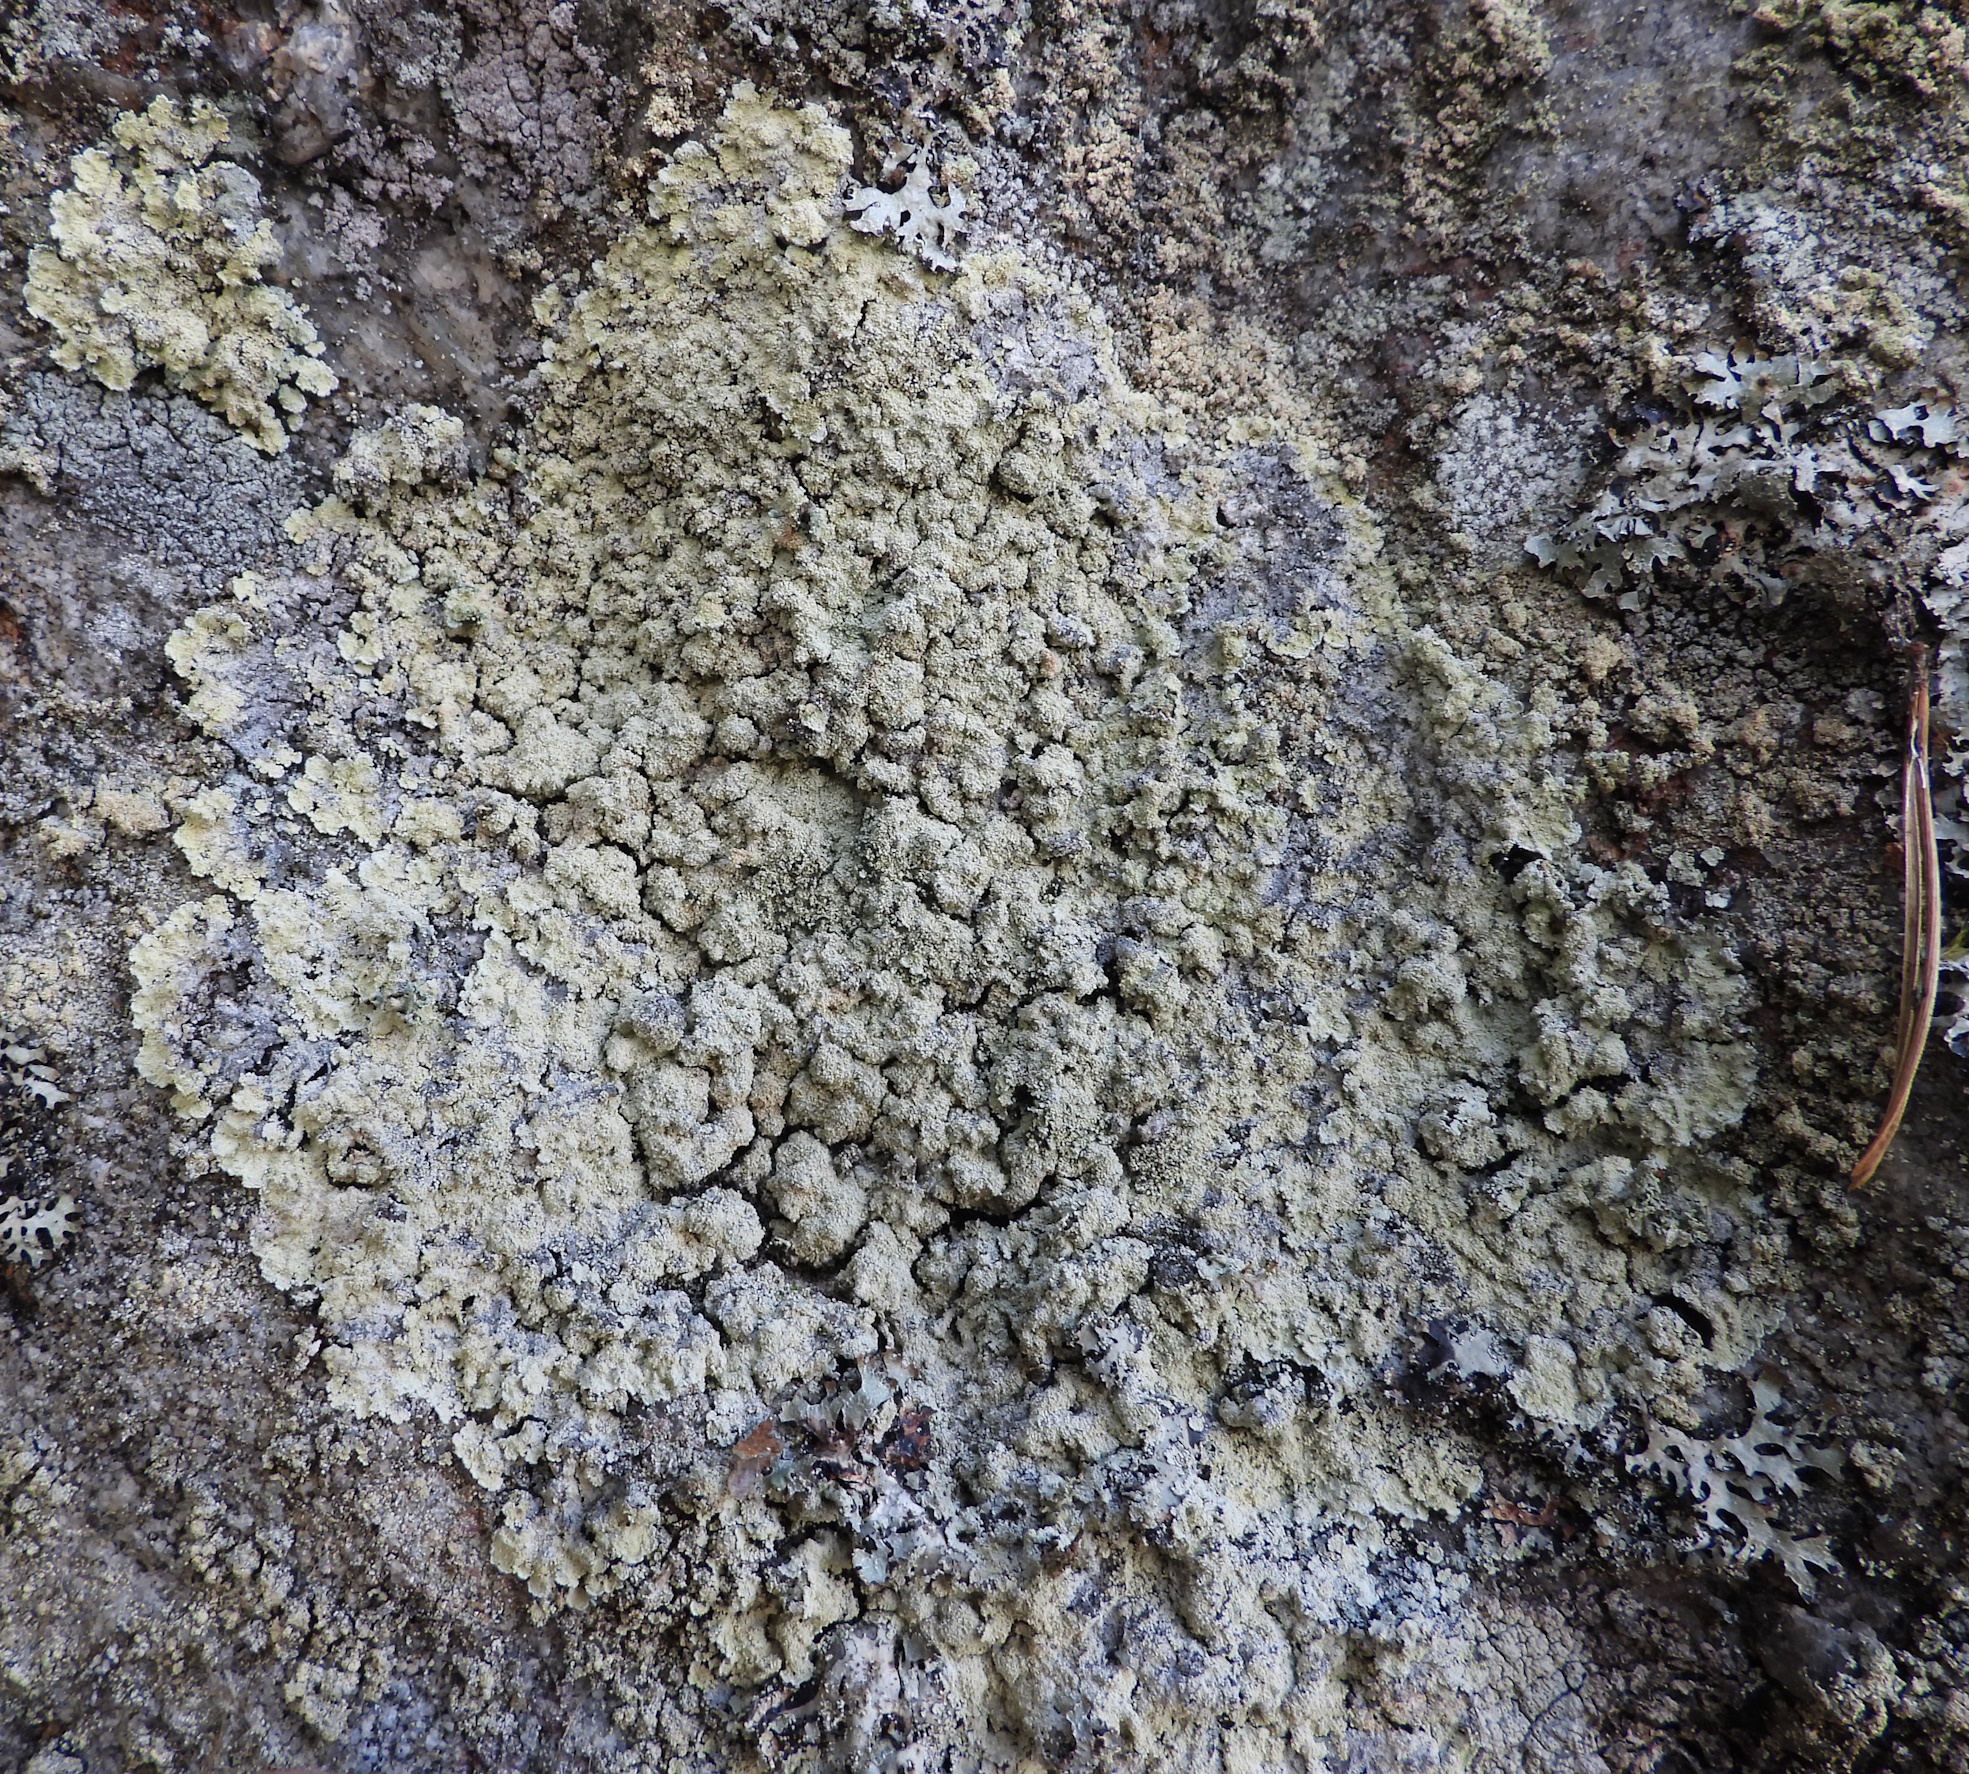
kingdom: Fungi
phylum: Ascomycota
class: Lecanoromycetes
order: Lecanorales
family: Stereocaulaceae
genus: Lepraria
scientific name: Lepraria membranacea
